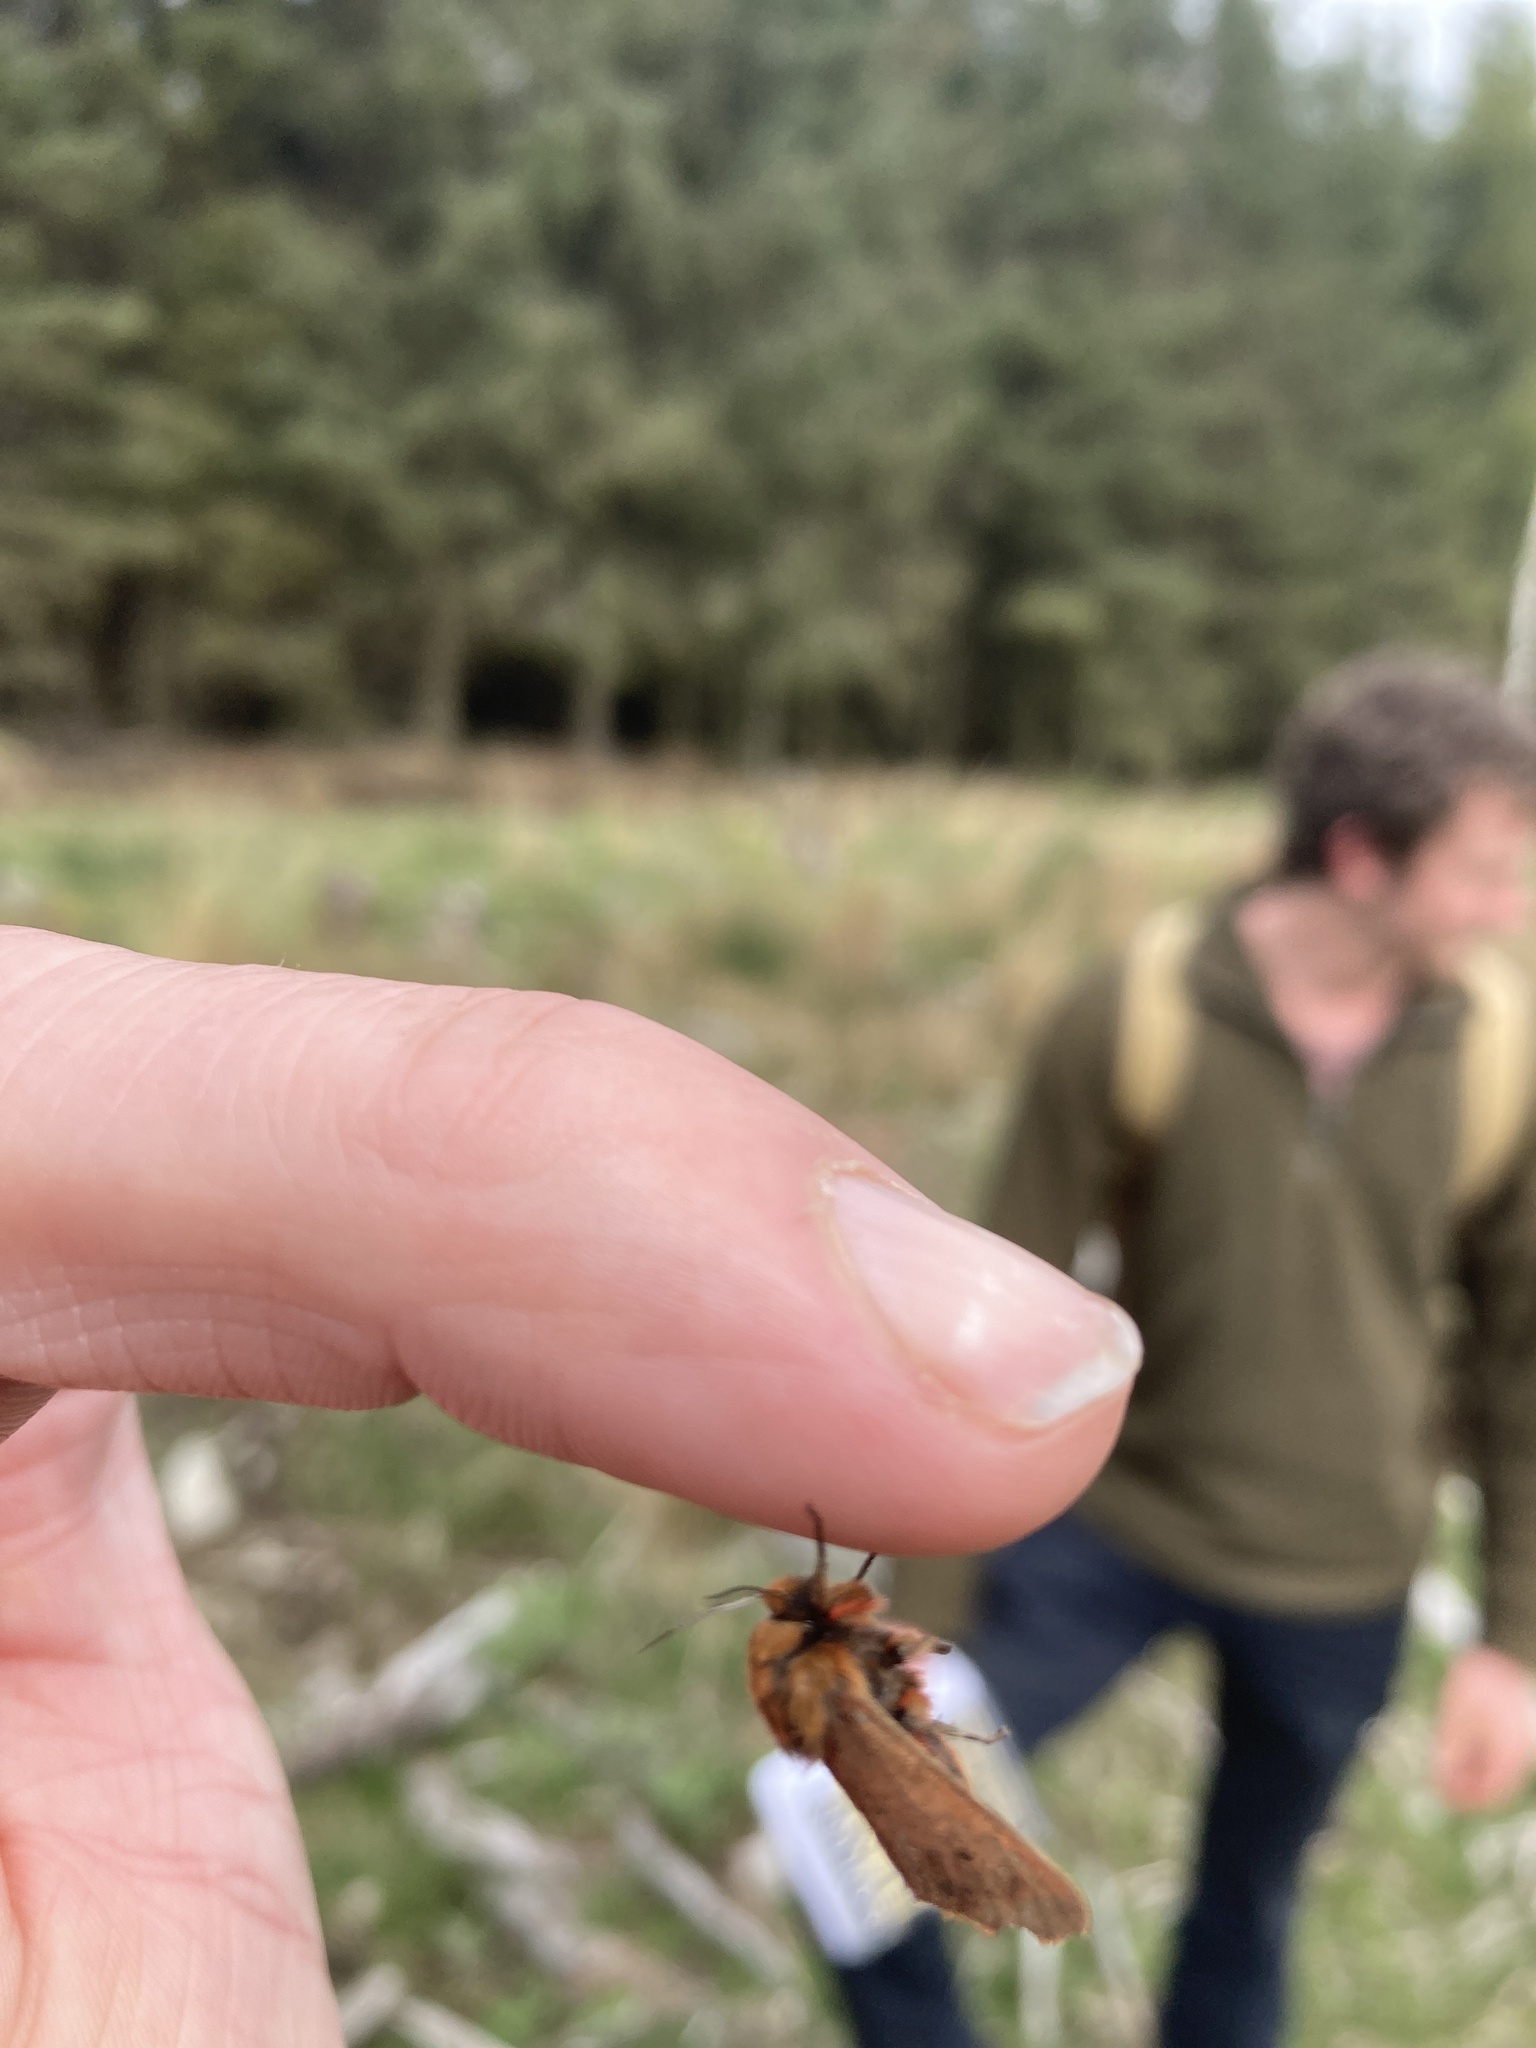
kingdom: Animalia
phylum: Arthropoda
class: Insecta
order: Lepidoptera
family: Erebidae
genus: Phragmatobia
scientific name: Phragmatobia fuliginosa
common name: Ruby tiger
